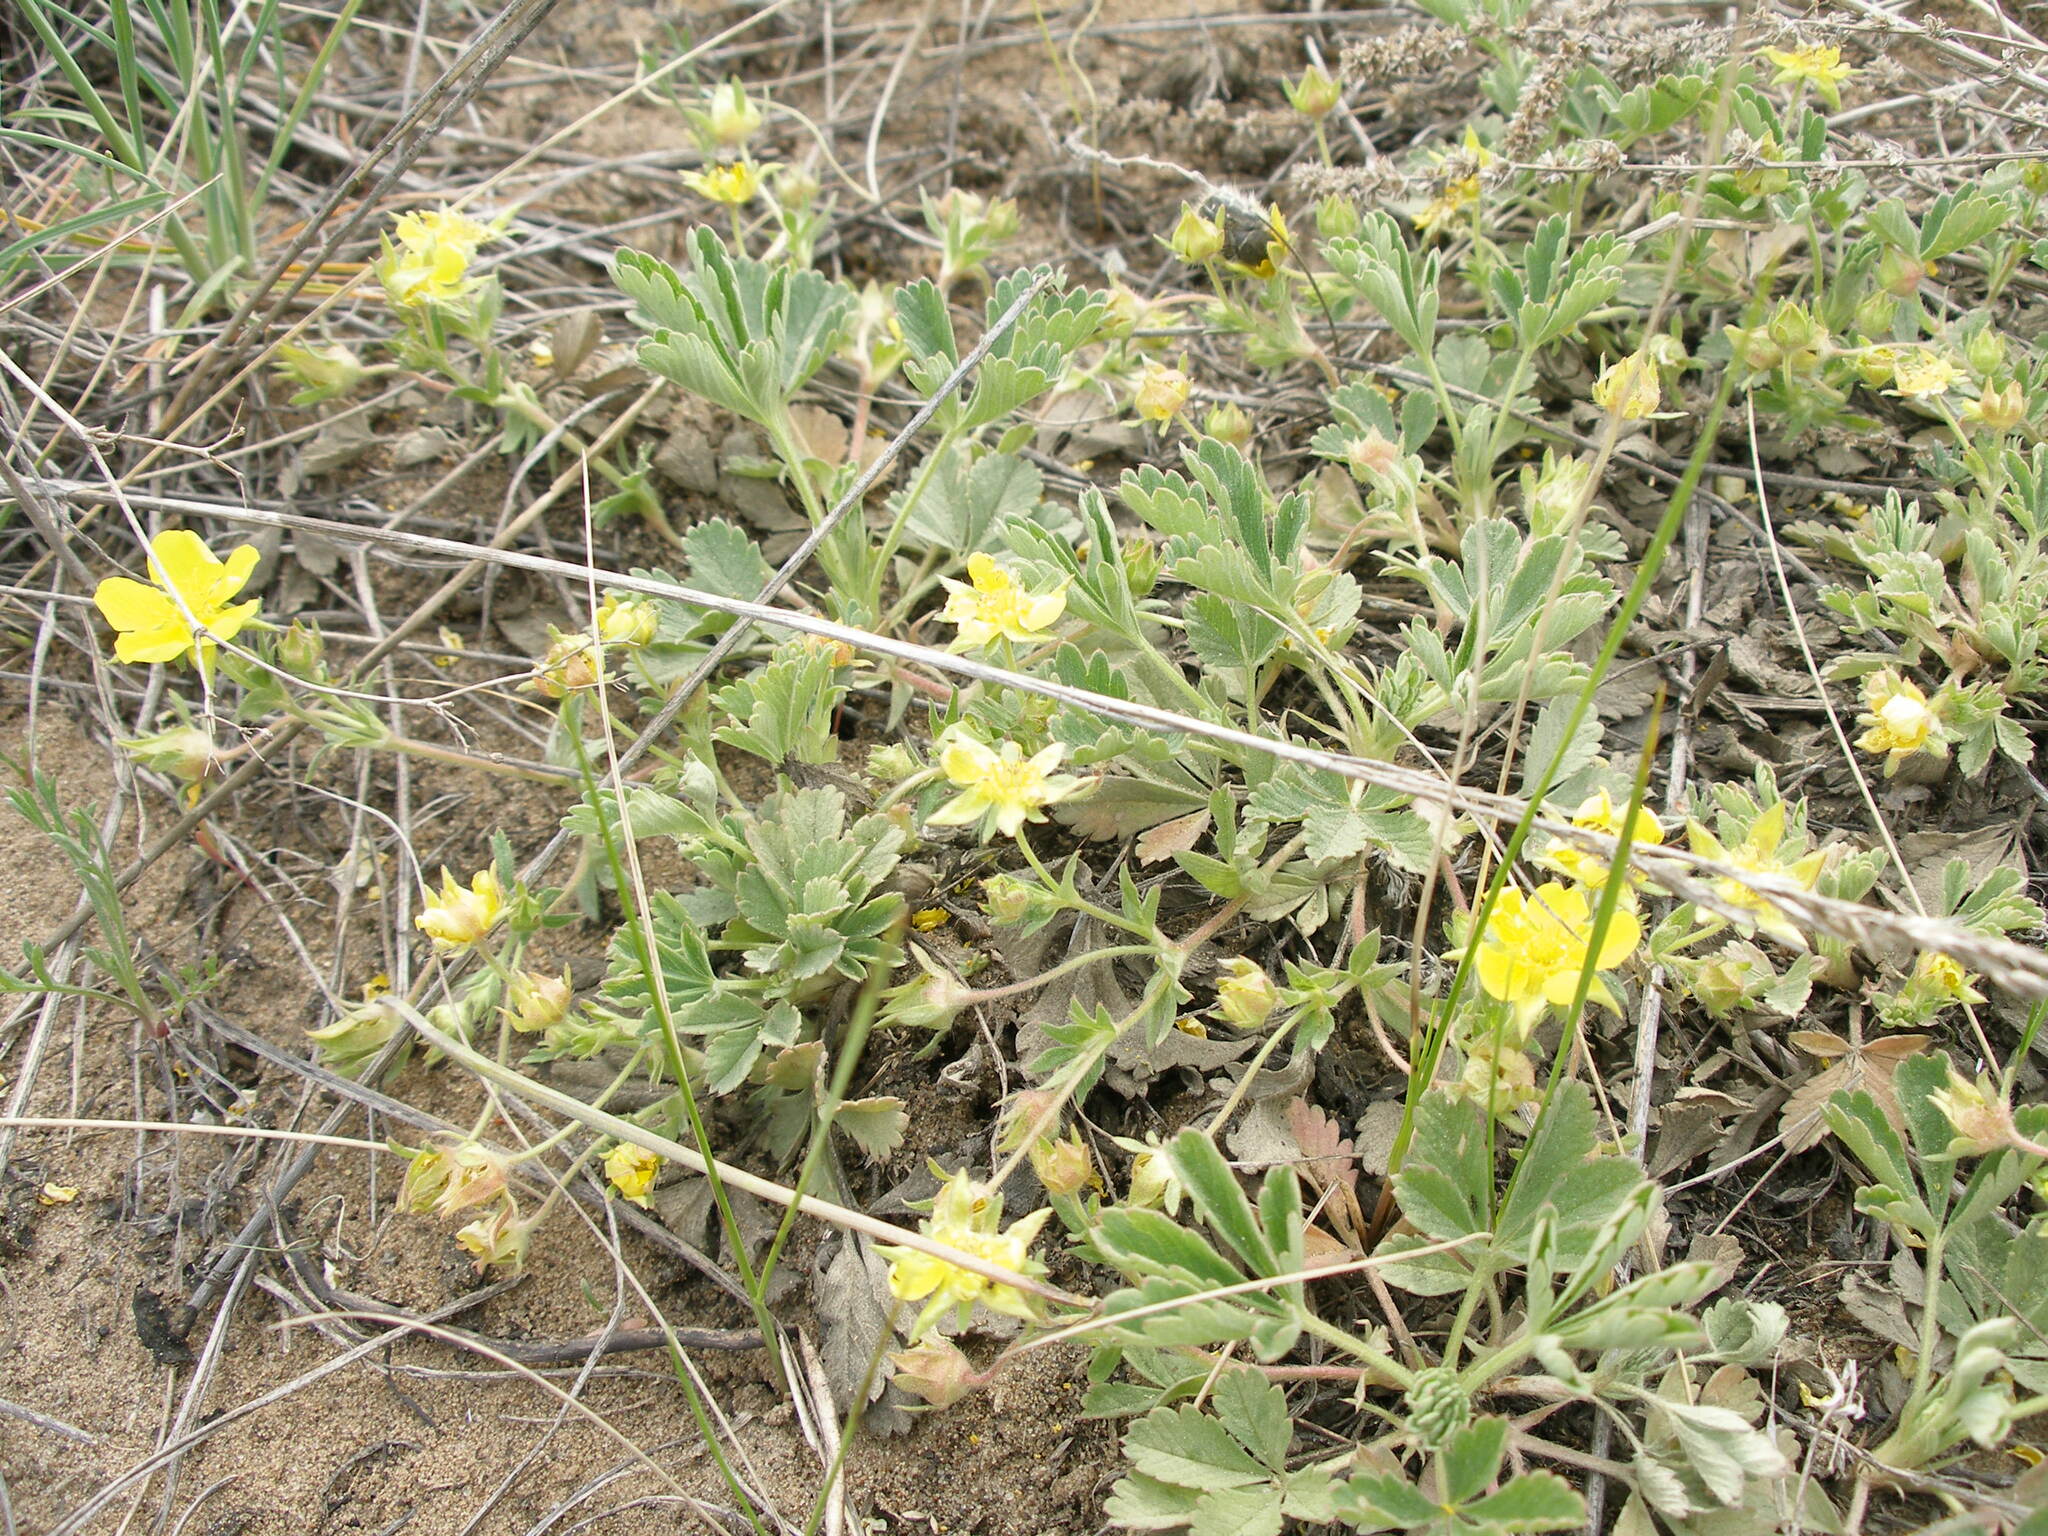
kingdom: Plantae
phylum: Tracheophyta
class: Magnoliopsida
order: Rosales
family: Rosaceae
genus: Potentilla
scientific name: Potentilla humifusa
